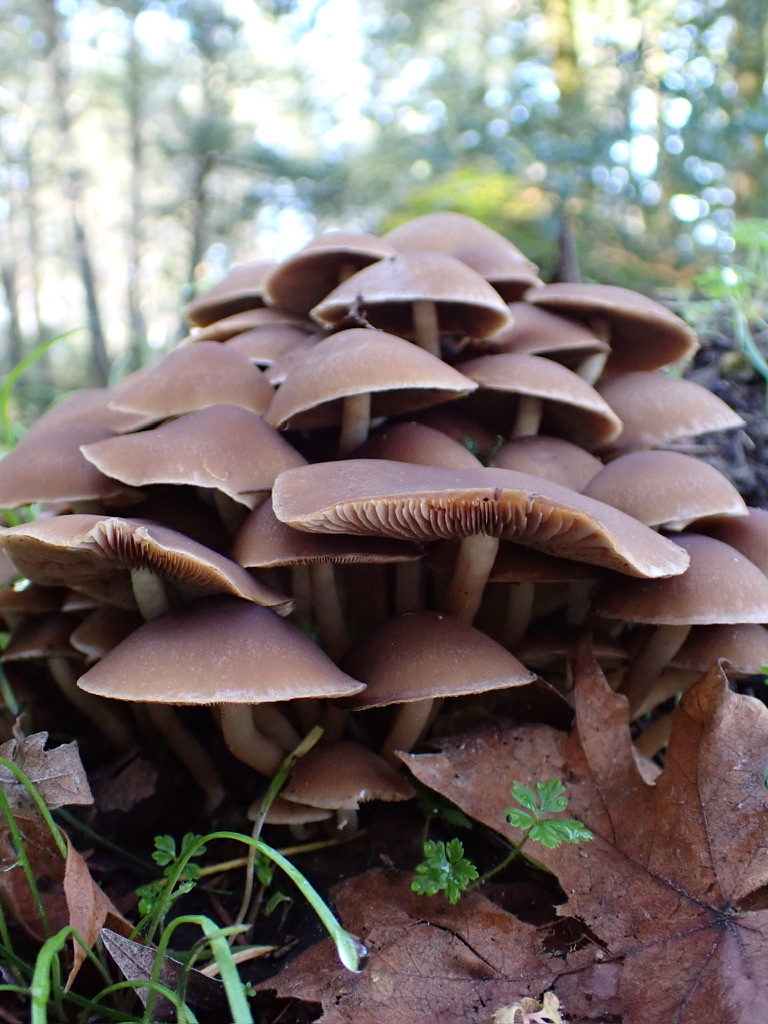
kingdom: Fungi
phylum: Basidiomycota
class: Agaricomycetes
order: Agaricales
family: Psathyrellaceae
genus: Psathyrella
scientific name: Psathyrella piluliformis
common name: Common stump brittlestem
